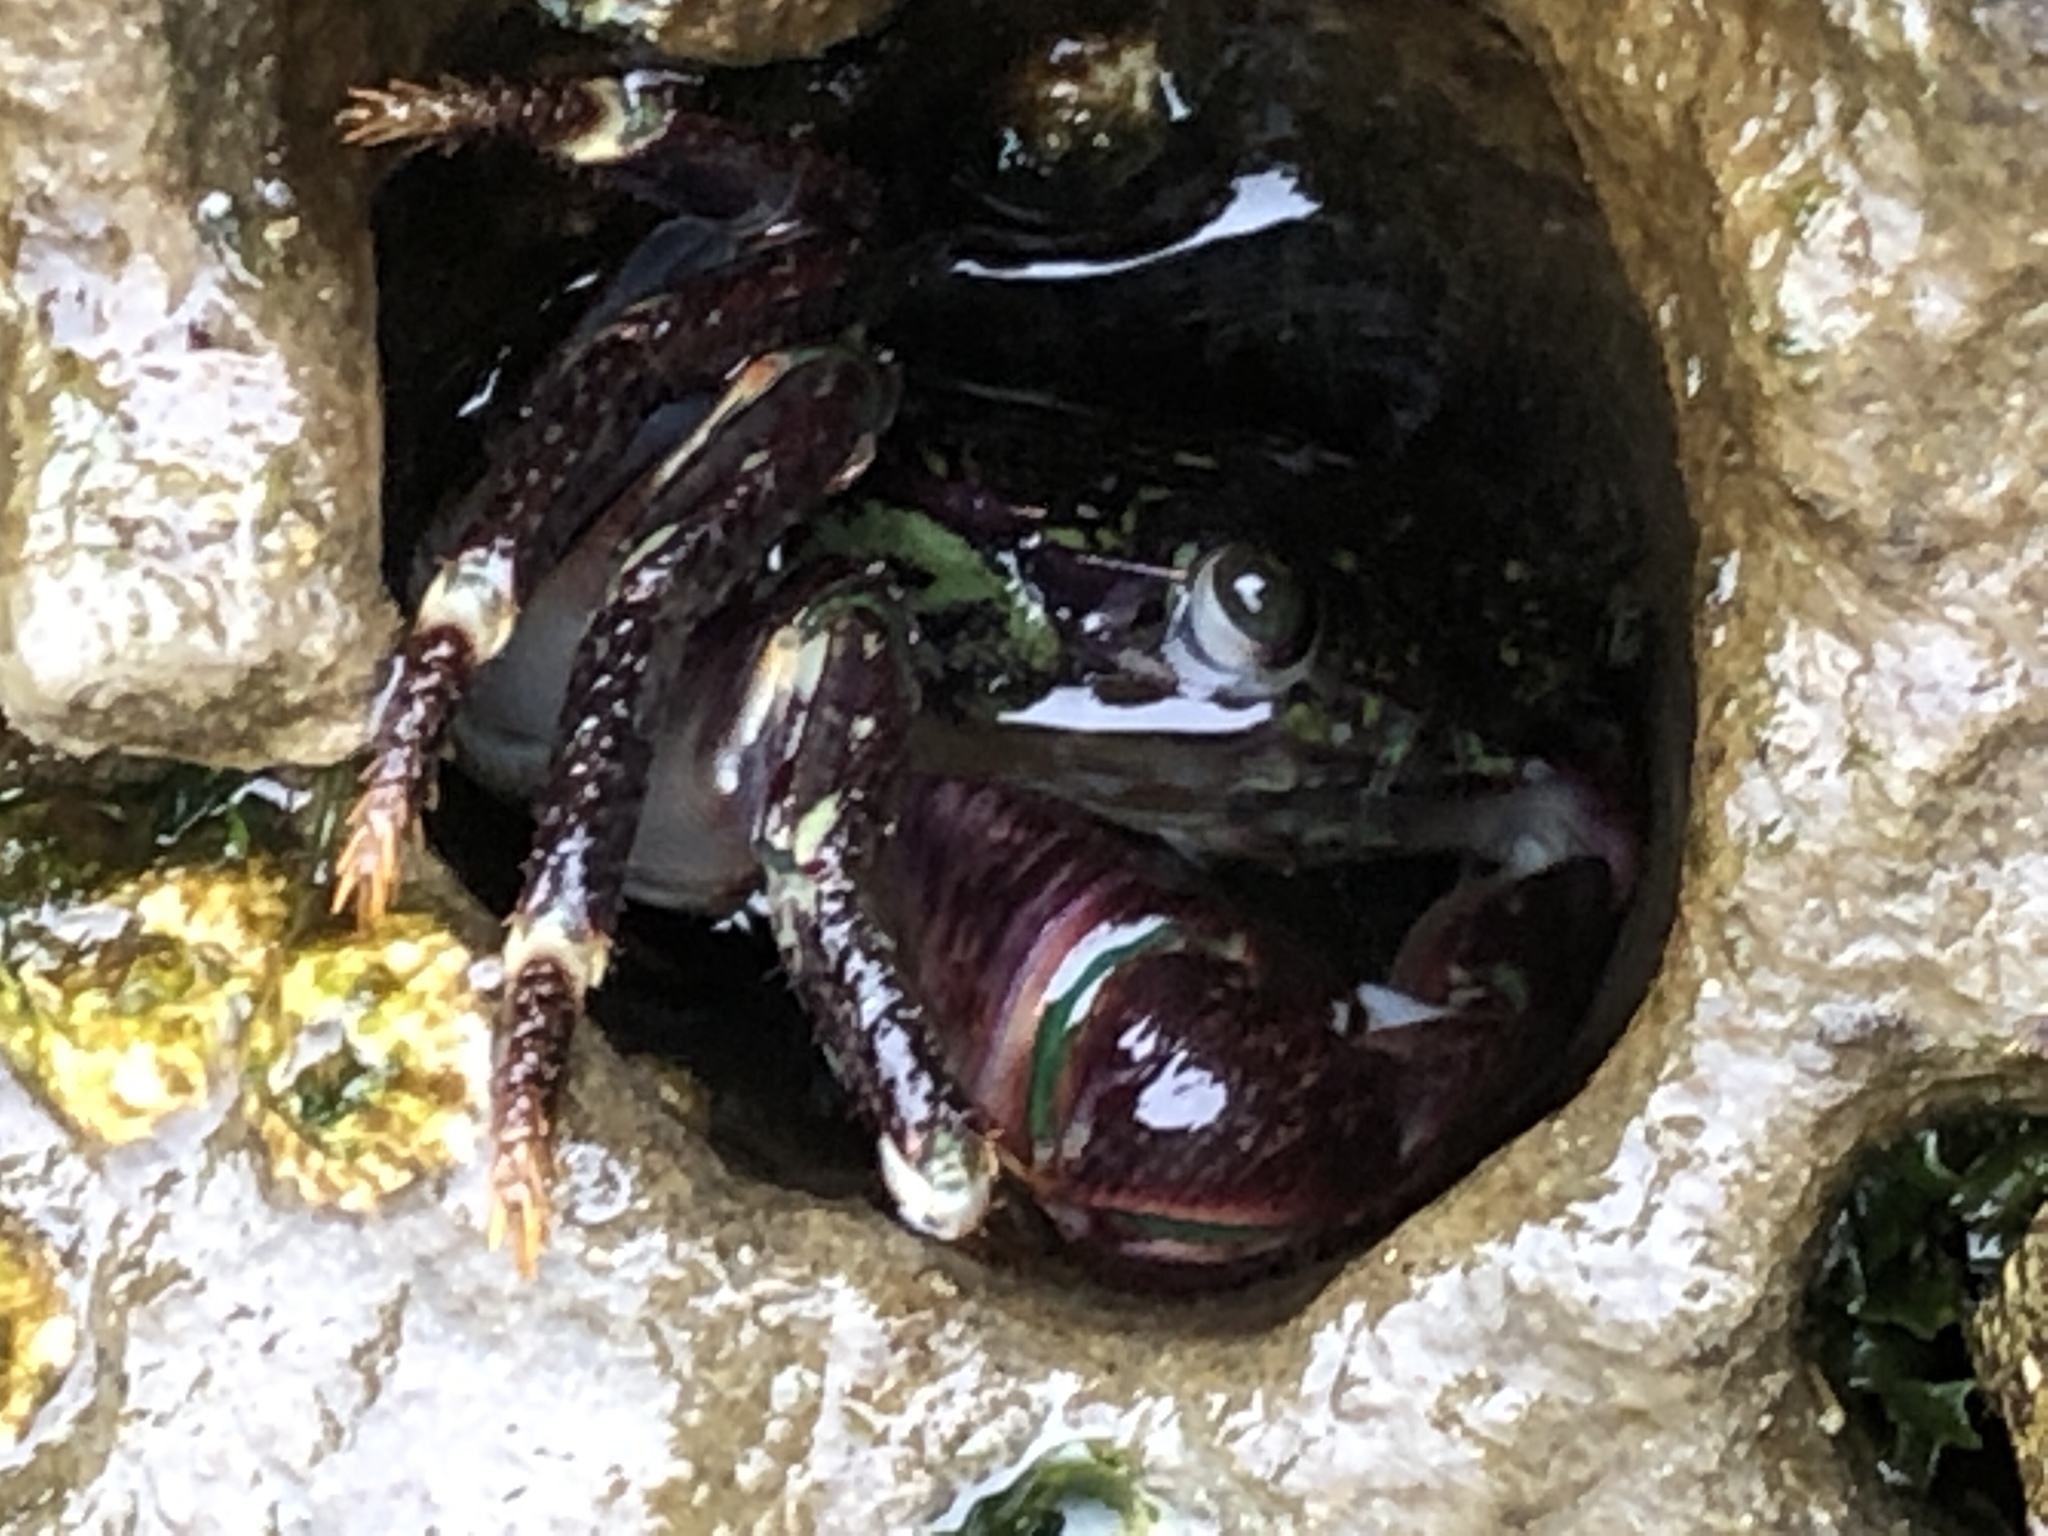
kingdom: Animalia
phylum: Arthropoda
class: Malacostraca
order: Decapoda
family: Grapsidae
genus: Pachygrapsus
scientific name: Pachygrapsus crassipes
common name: Striped shore crab
